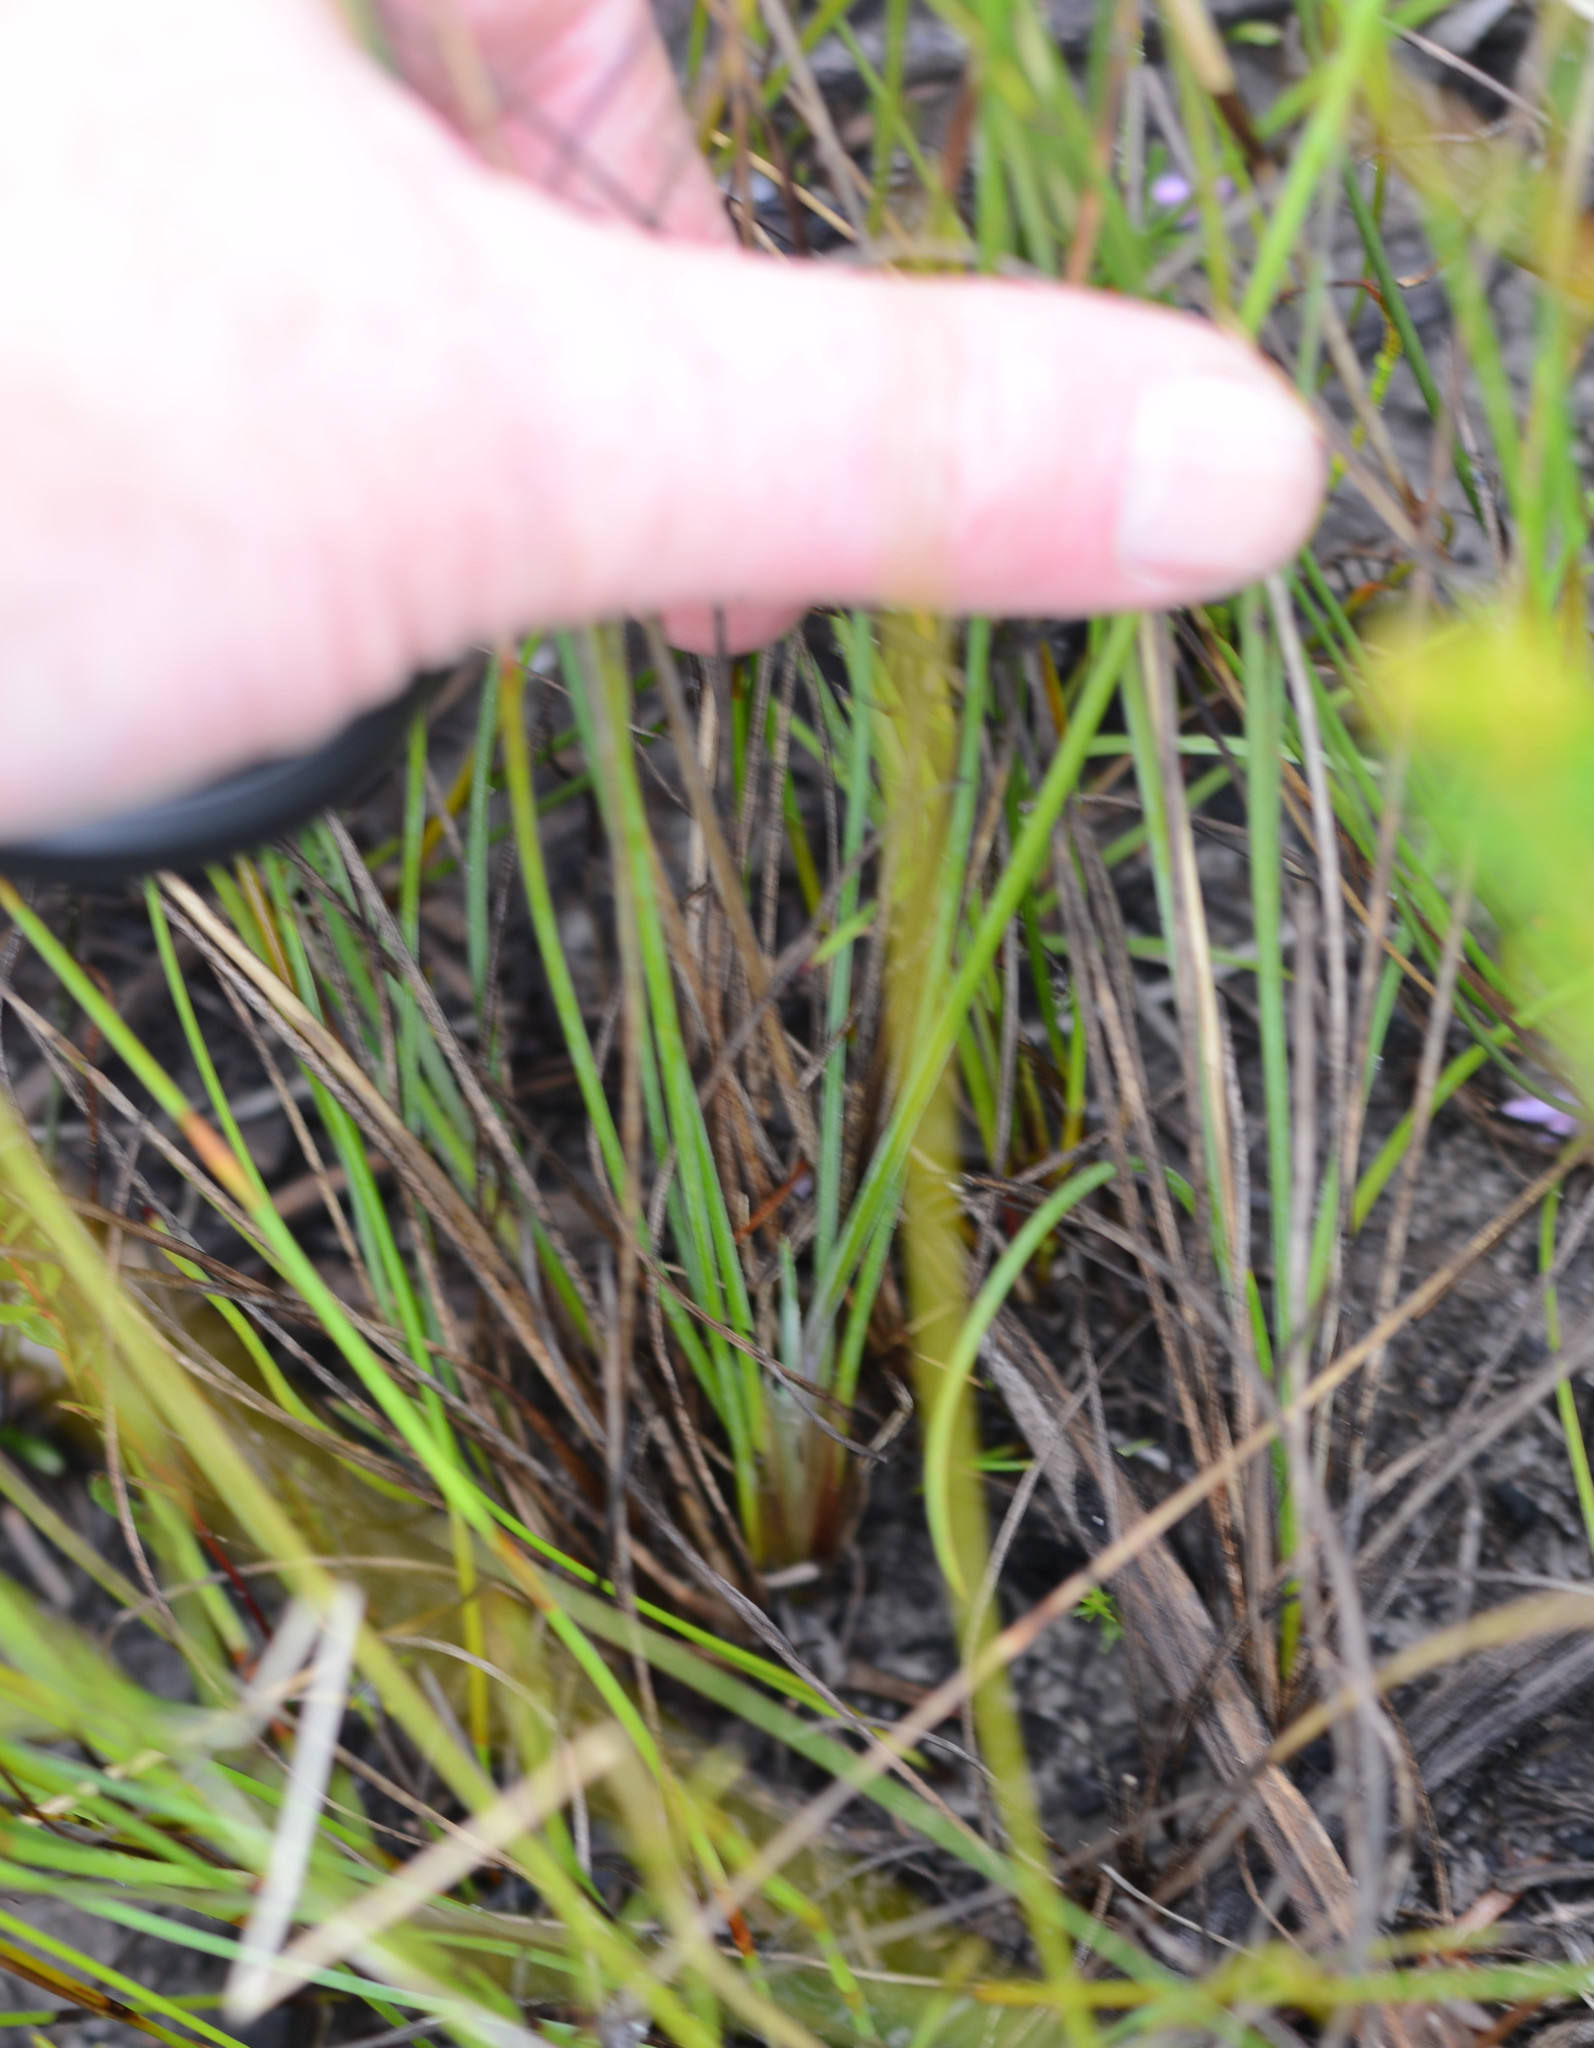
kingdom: Plantae
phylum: Tracheophyta
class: Liliopsida
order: Asparagales
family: Asparagaceae
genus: Sowerbaea
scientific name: Sowerbaea juncea
